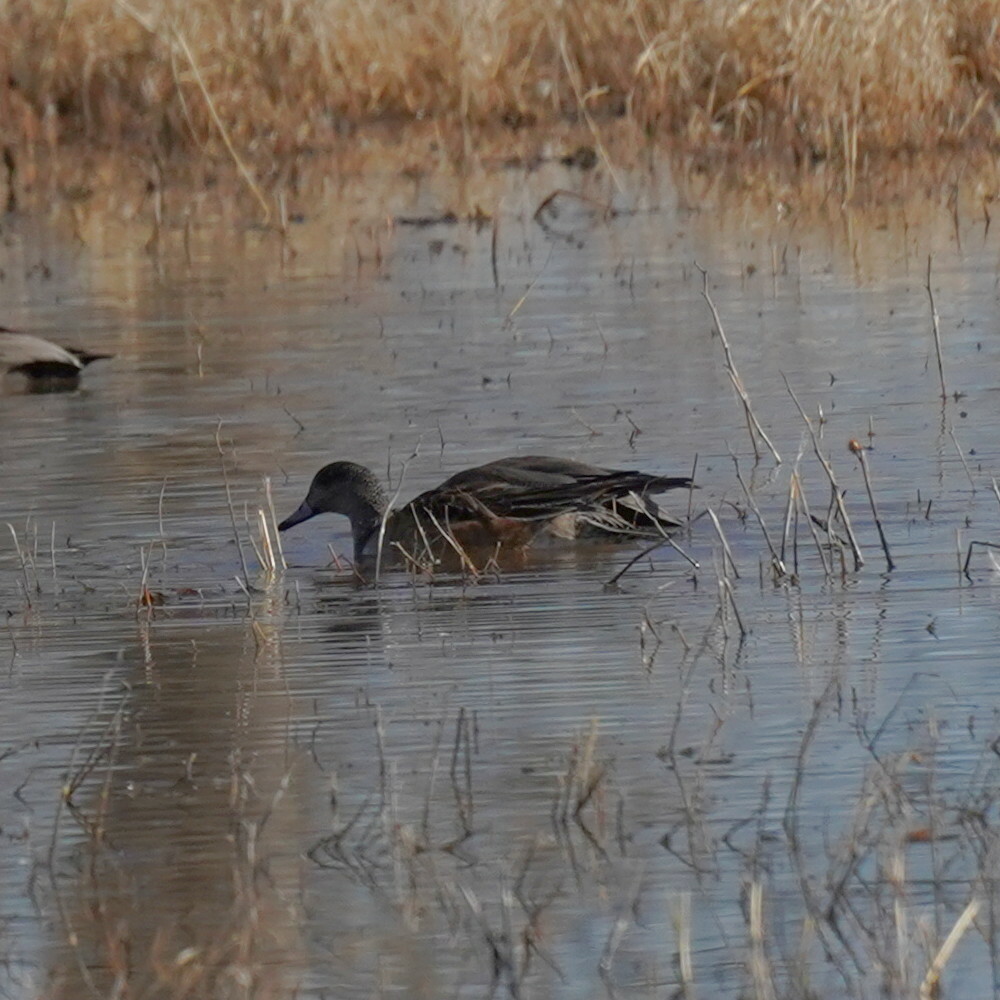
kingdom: Animalia
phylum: Chordata
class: Aves
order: Anseriformes
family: Anatidae
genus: Mareca
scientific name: Mareca americana
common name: American wigeon
